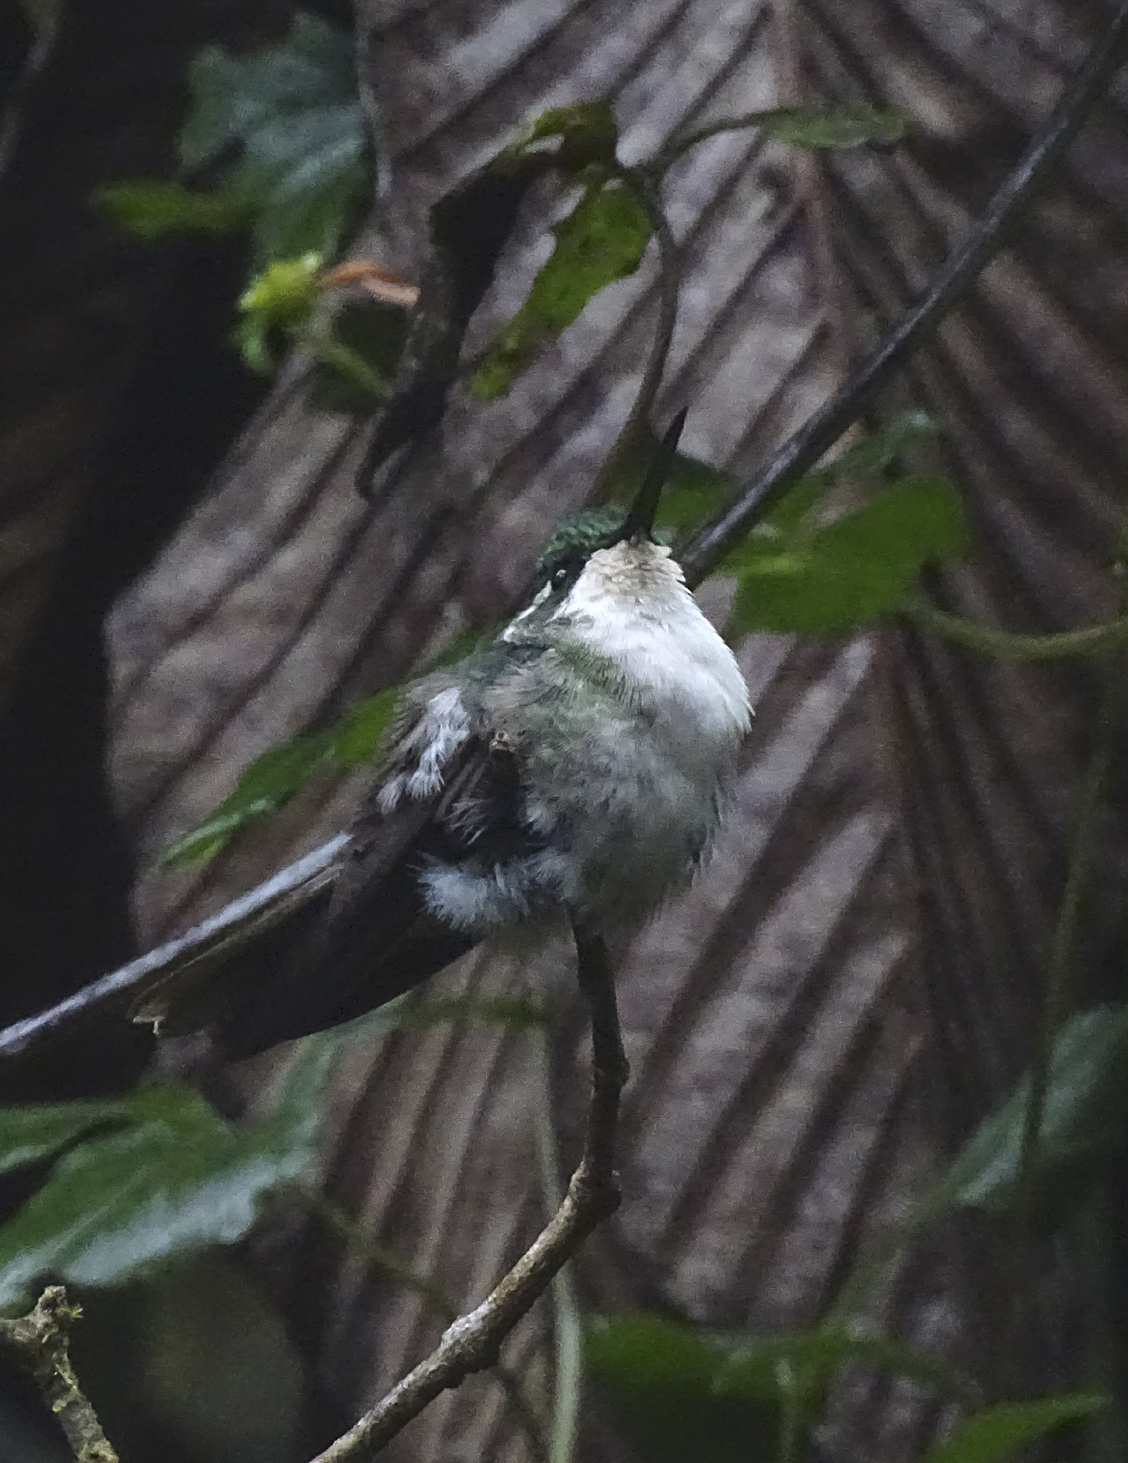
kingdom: Animalia
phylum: Chordata
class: Aves
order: Apodiformes
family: Trochilidae
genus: Lampornis
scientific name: Lampornis viridipallens
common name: Green-throated mountain-gem
